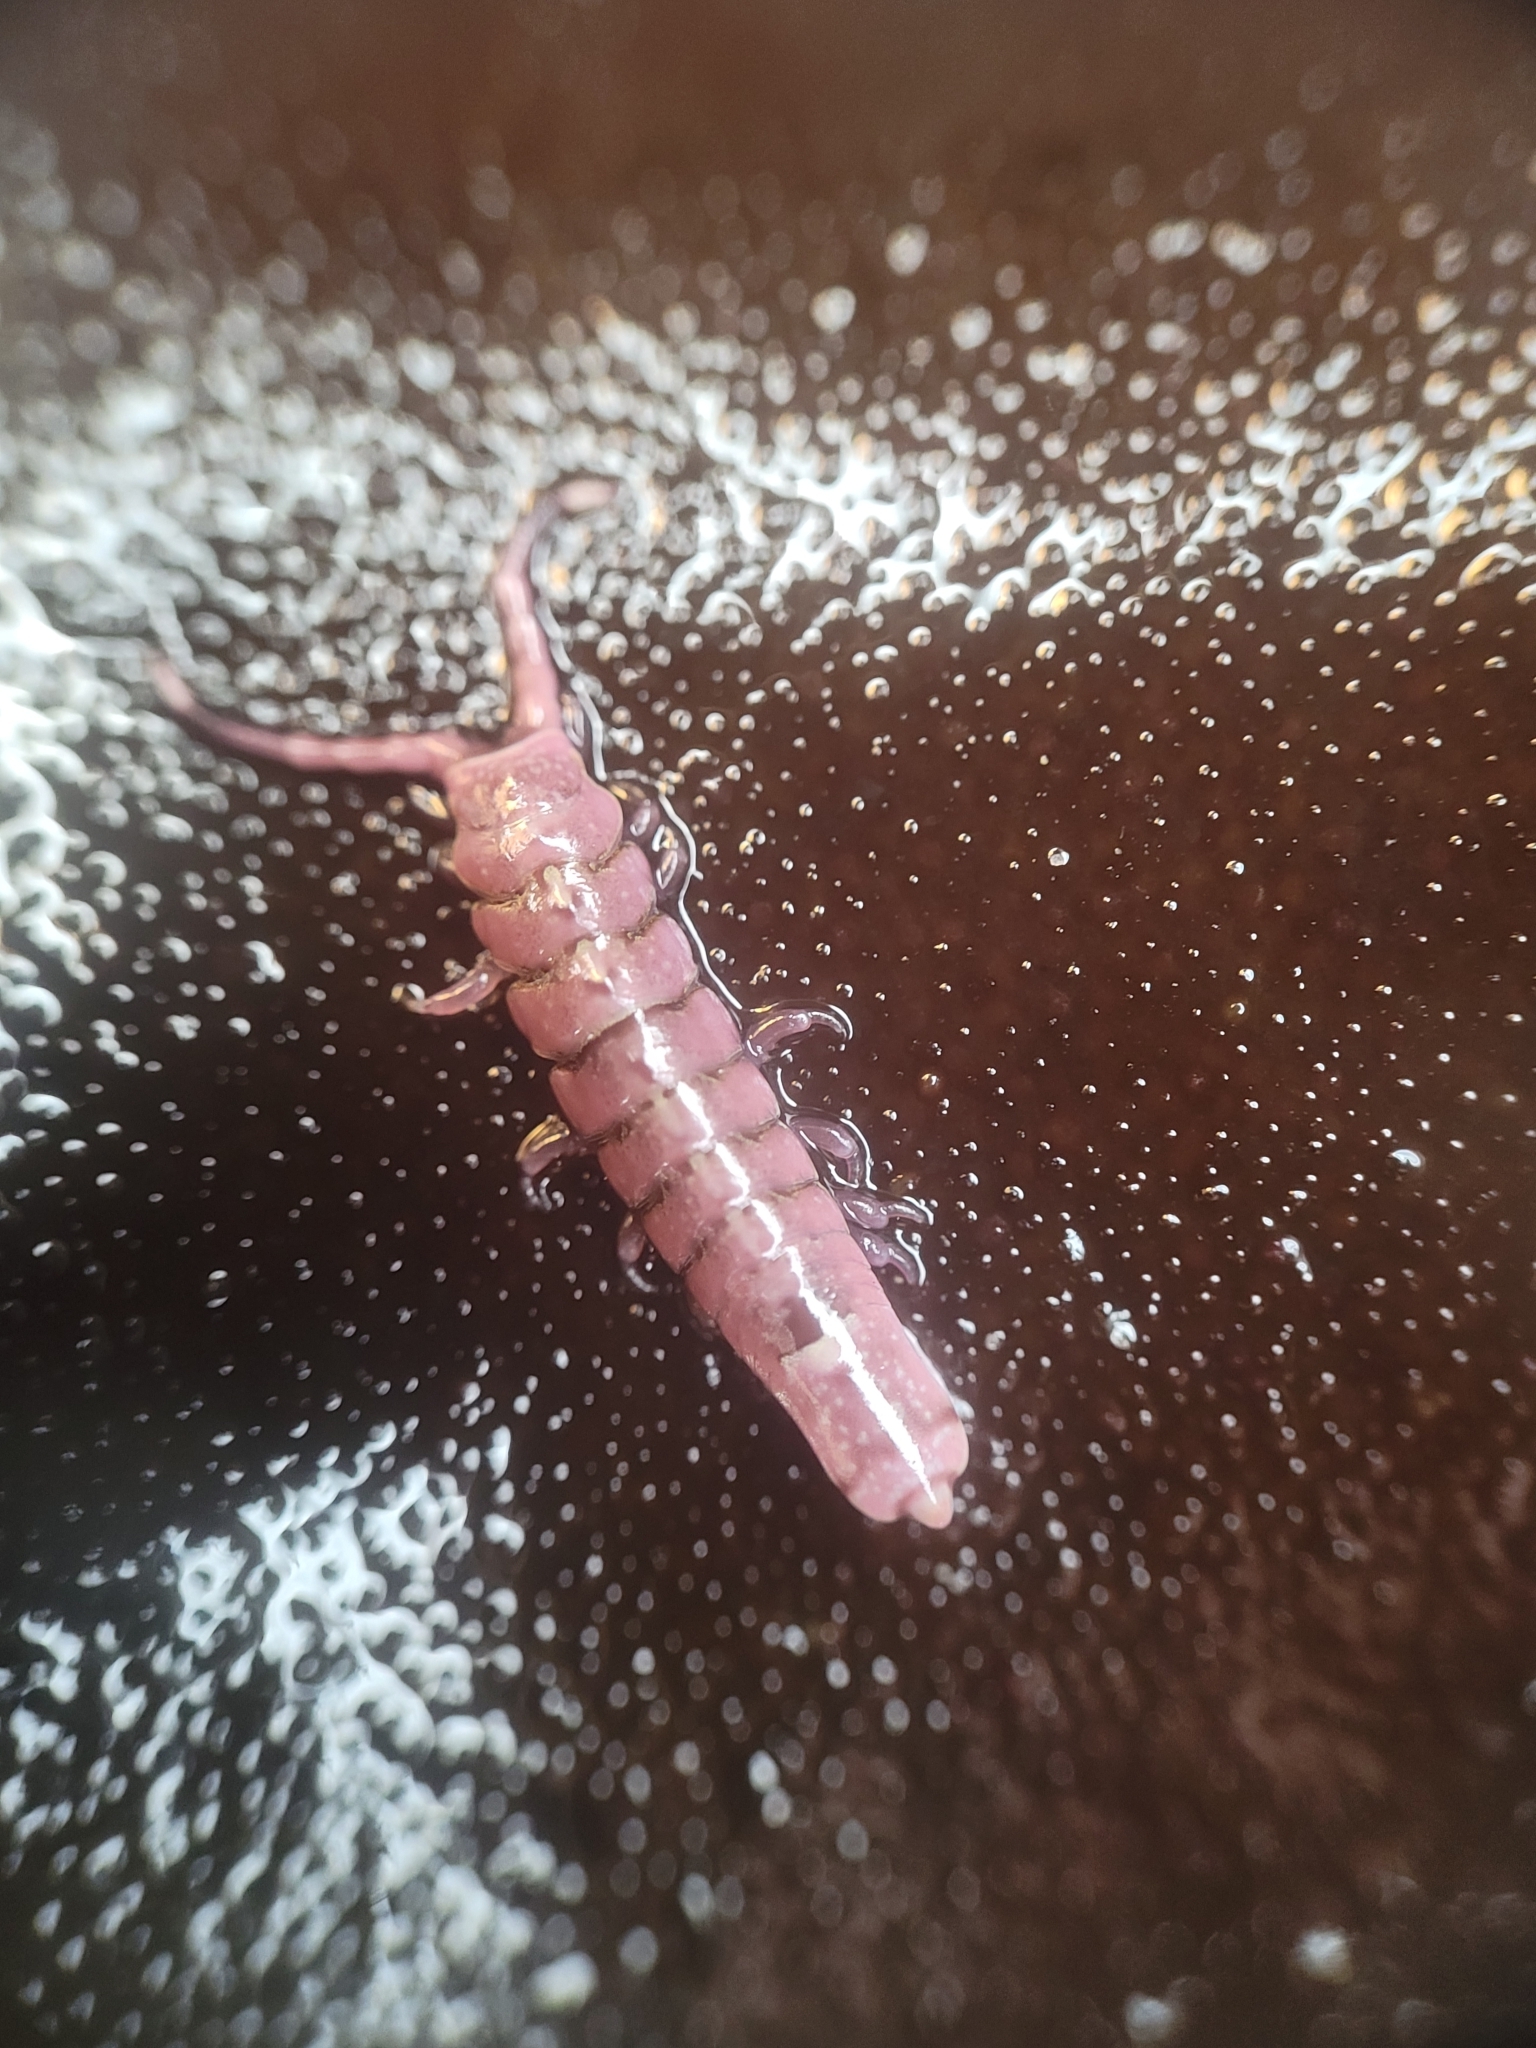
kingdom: Animalia
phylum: Arthropoda
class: Malacostraca
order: Isopoda
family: Idoteidae
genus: Pentidotea
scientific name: Pentidotea aculeata
